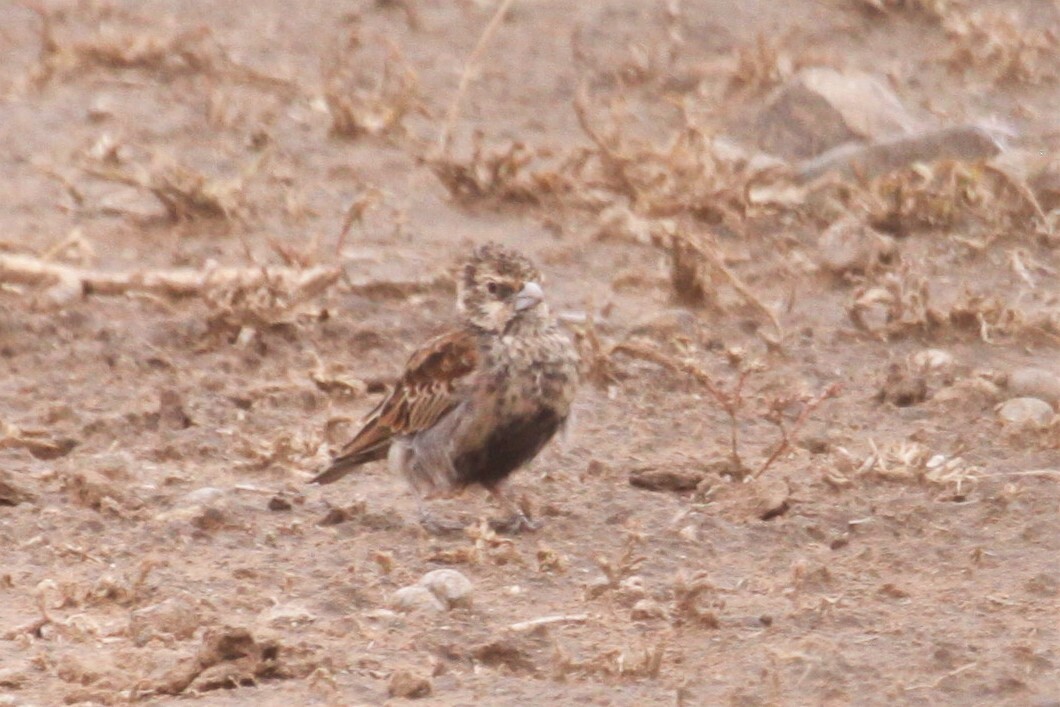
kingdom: Animalia
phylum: Chordata
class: Aves
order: Passeriformes
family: Alaudidae
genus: Eremopterix
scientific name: Eremopterix leucotis
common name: Chestnut-backed sparrow-lark
